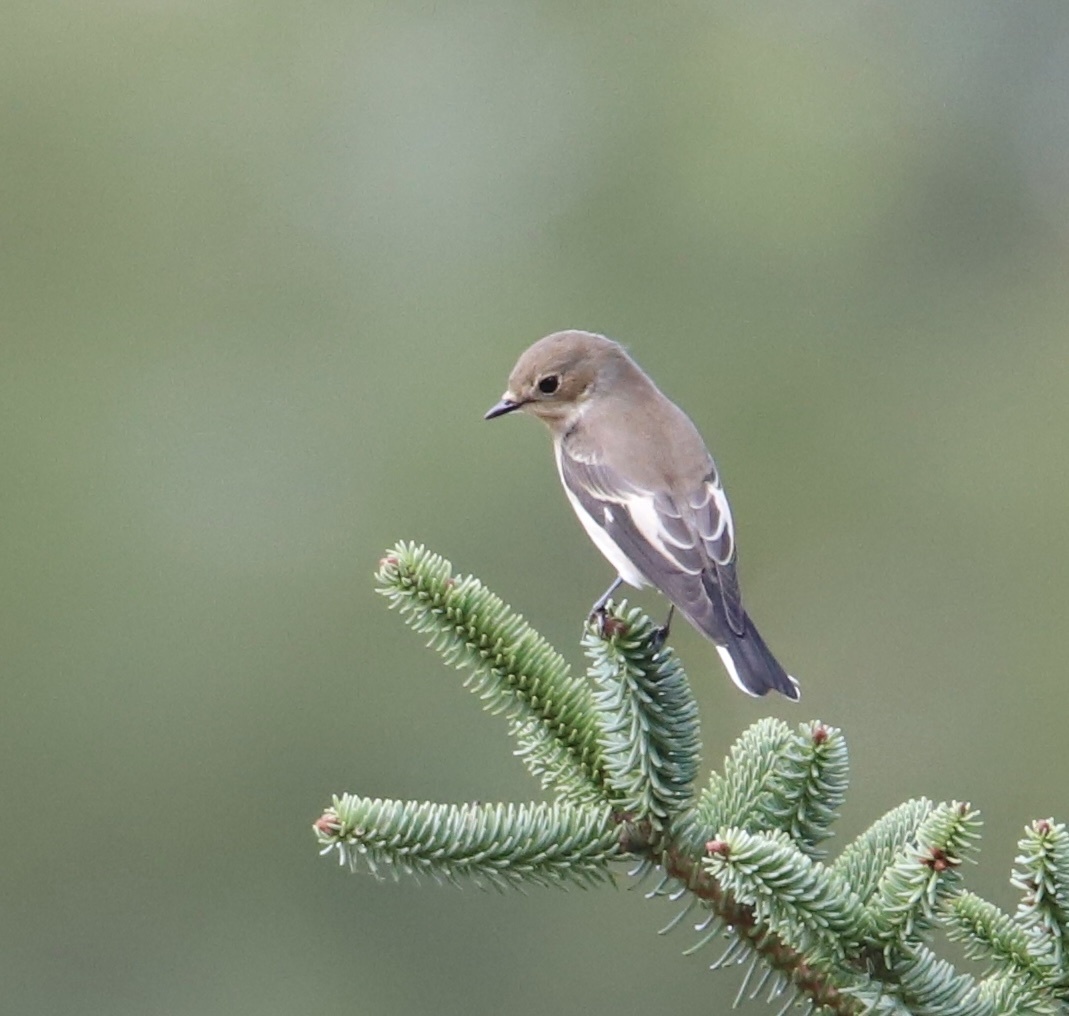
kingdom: Animalia
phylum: Chordata
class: Aves
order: Passeriformes
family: Muscicapidae
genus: Ficedula
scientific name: Ficedula hypoleuca
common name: European pied flycatcher
